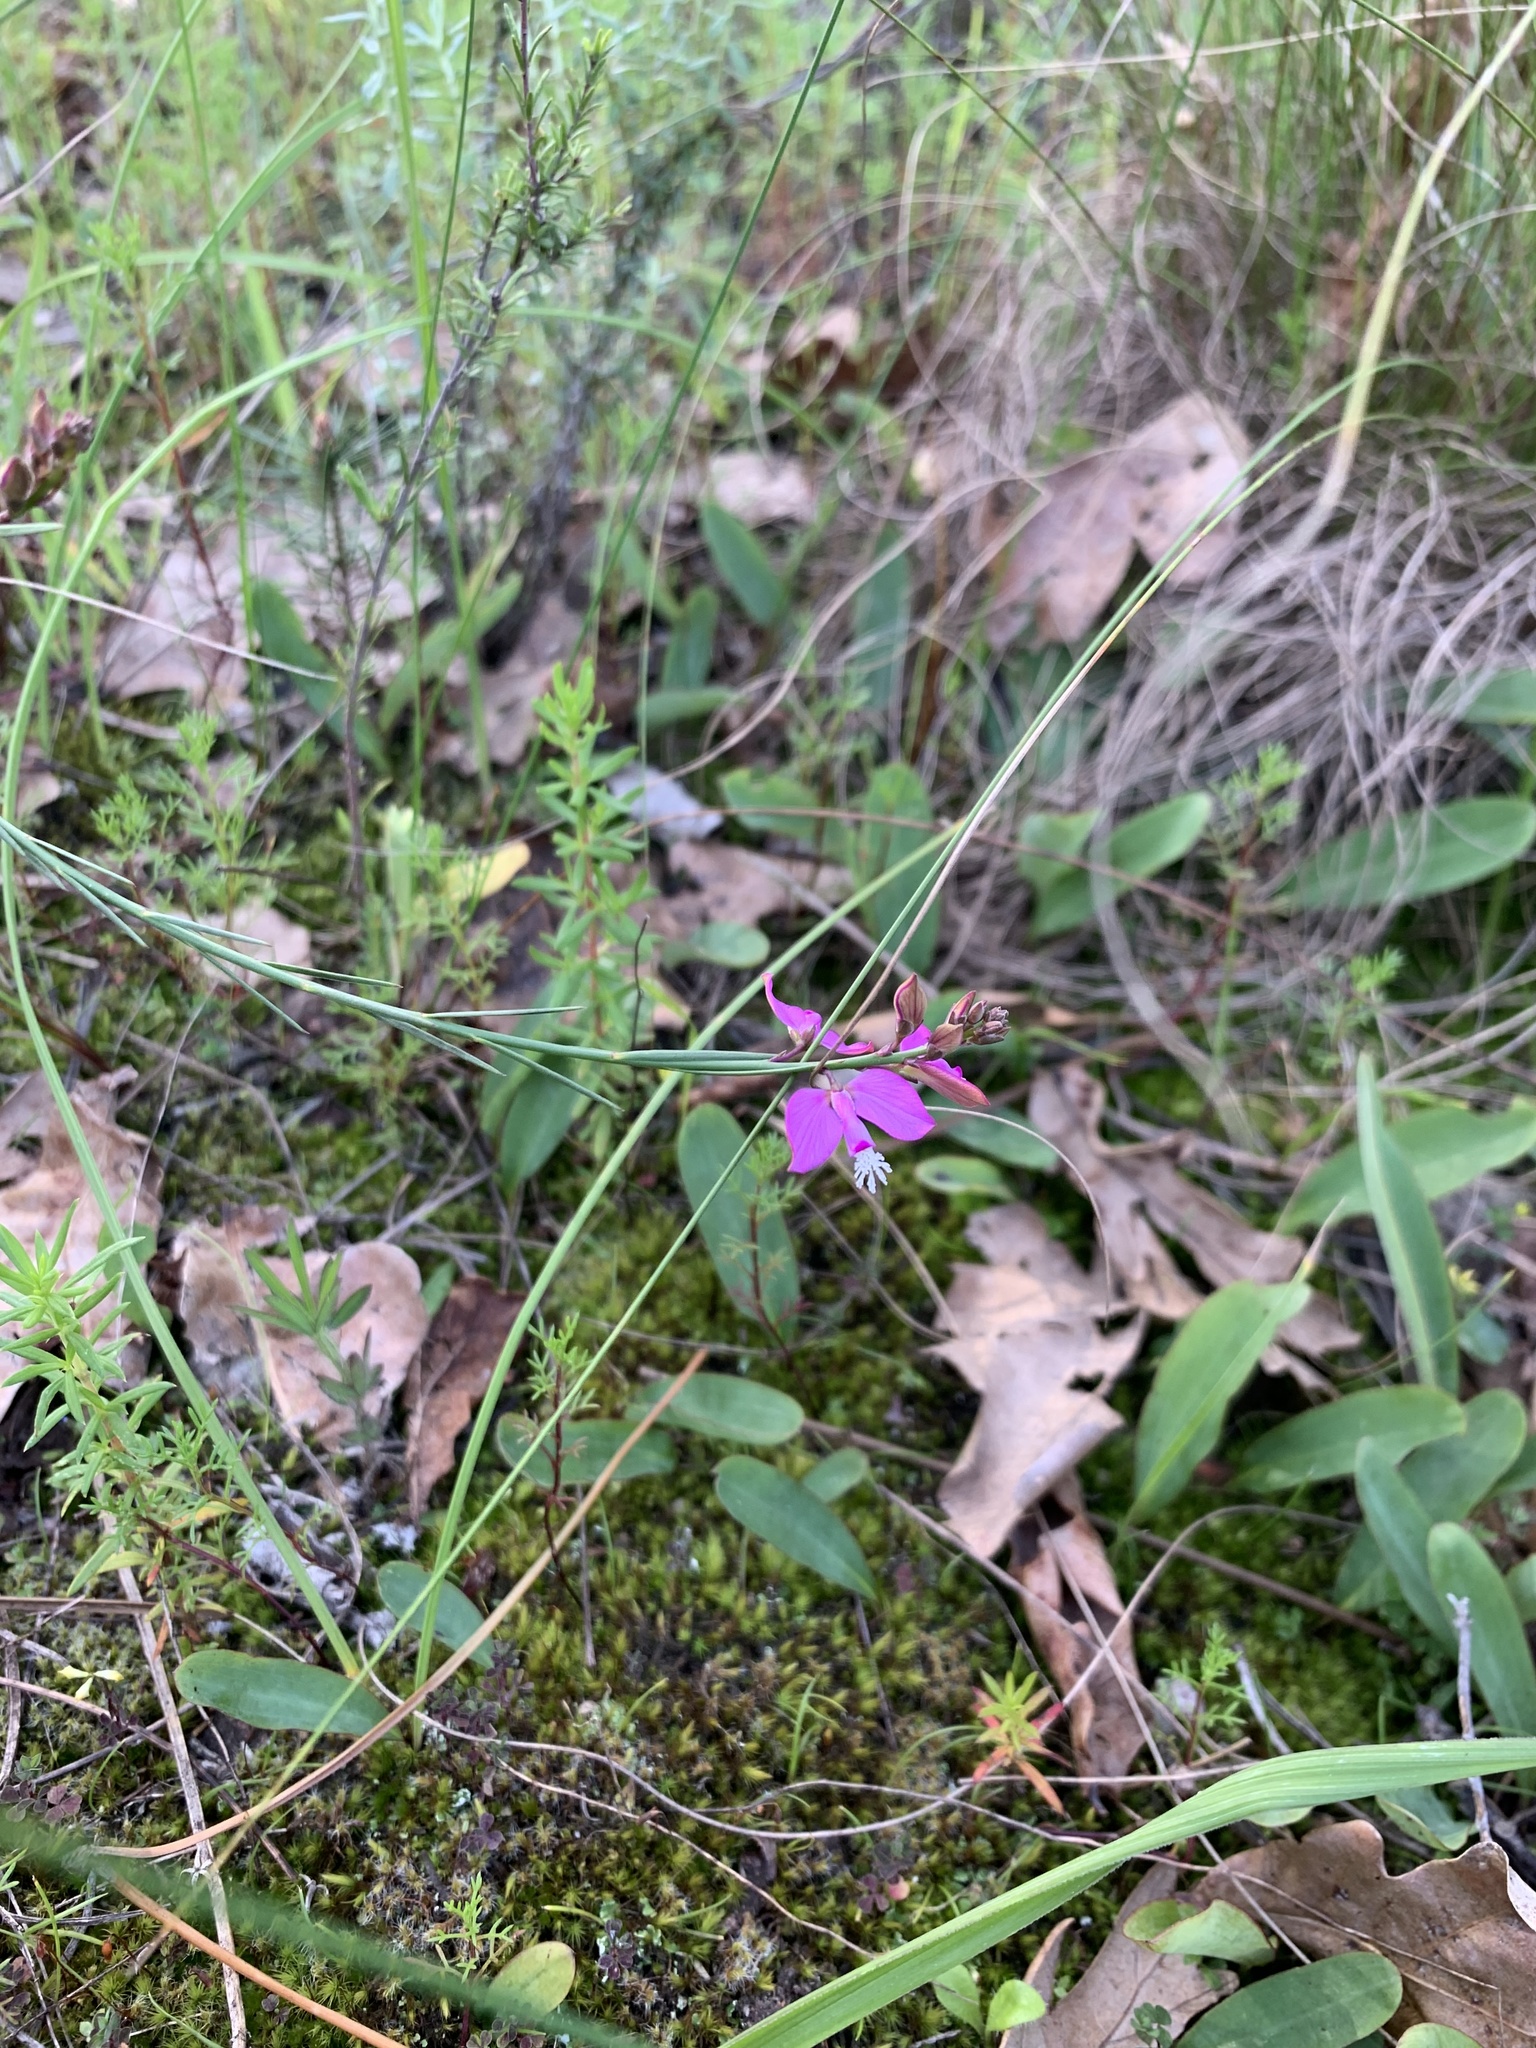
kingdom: Plantae
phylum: Tracheophyta
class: Magnoliopsida
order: Fabales
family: Polygalaceae
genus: Polygala
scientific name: Polygala garcini
